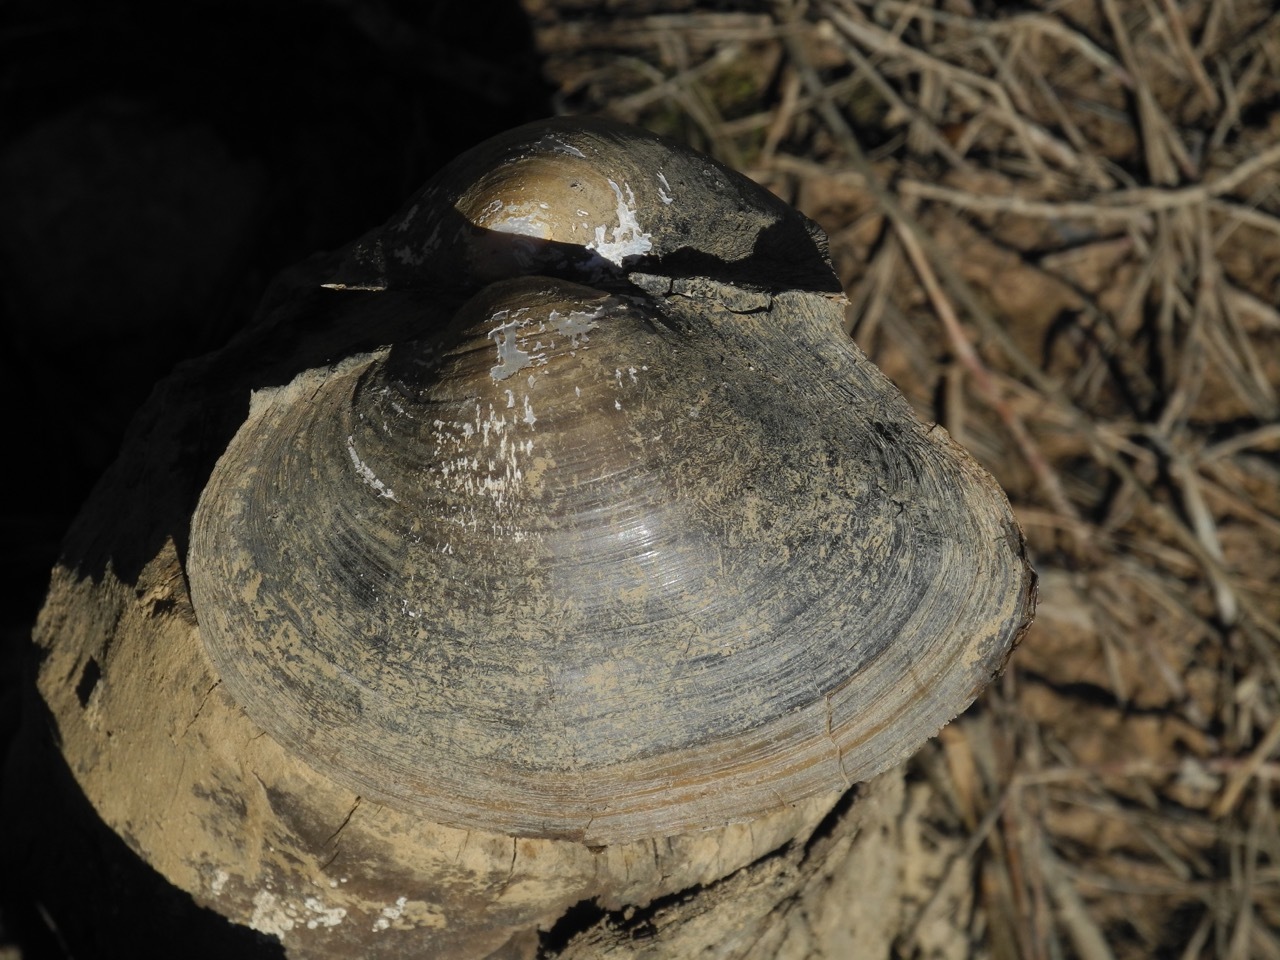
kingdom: Animalia
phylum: Mollusca
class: Bivalvia
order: Unionida
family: Unionidae
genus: Pyganodon
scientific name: Pyganodon grandis
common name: Giant floater
